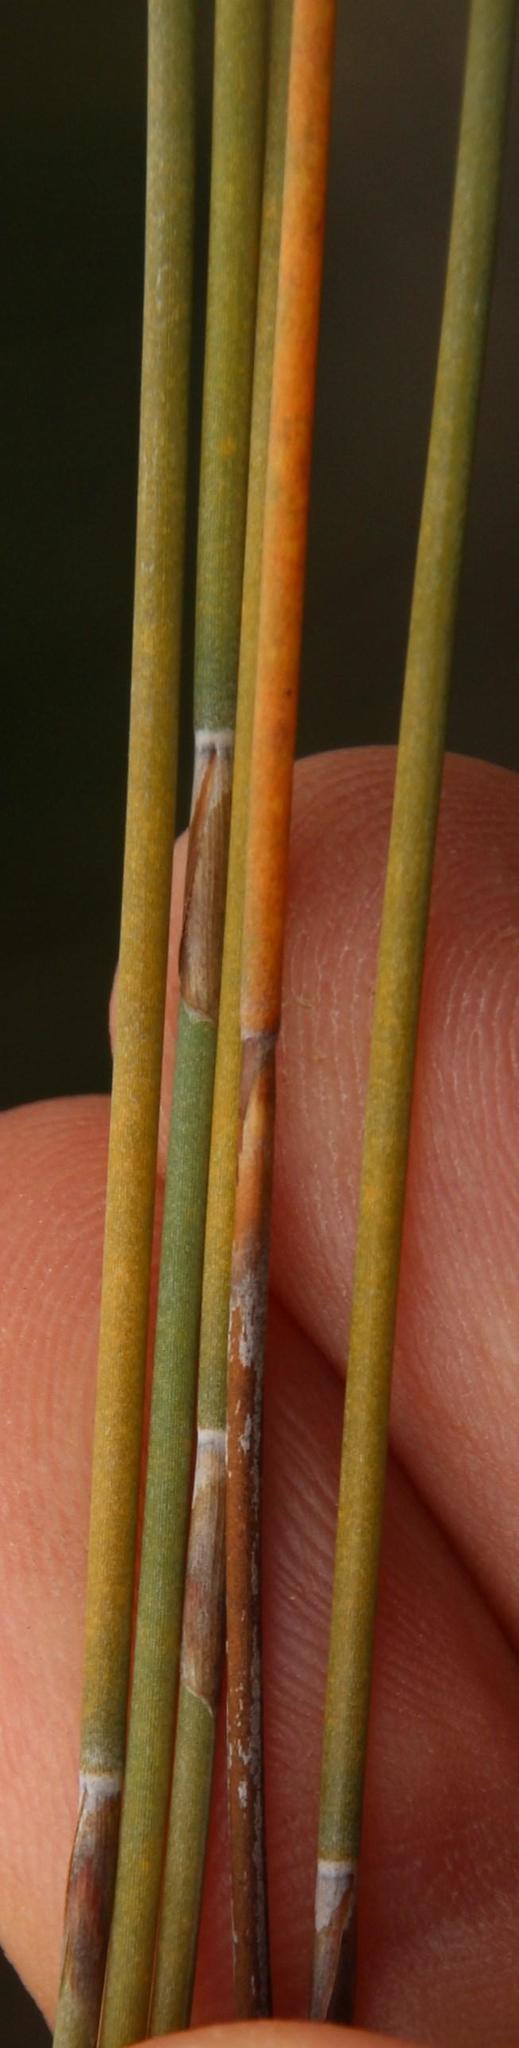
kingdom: Plantae
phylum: Tracheophyta
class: Liliopsida
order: Poales
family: Restionaceae
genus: Apodasmia
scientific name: Apodasmia chilensis
